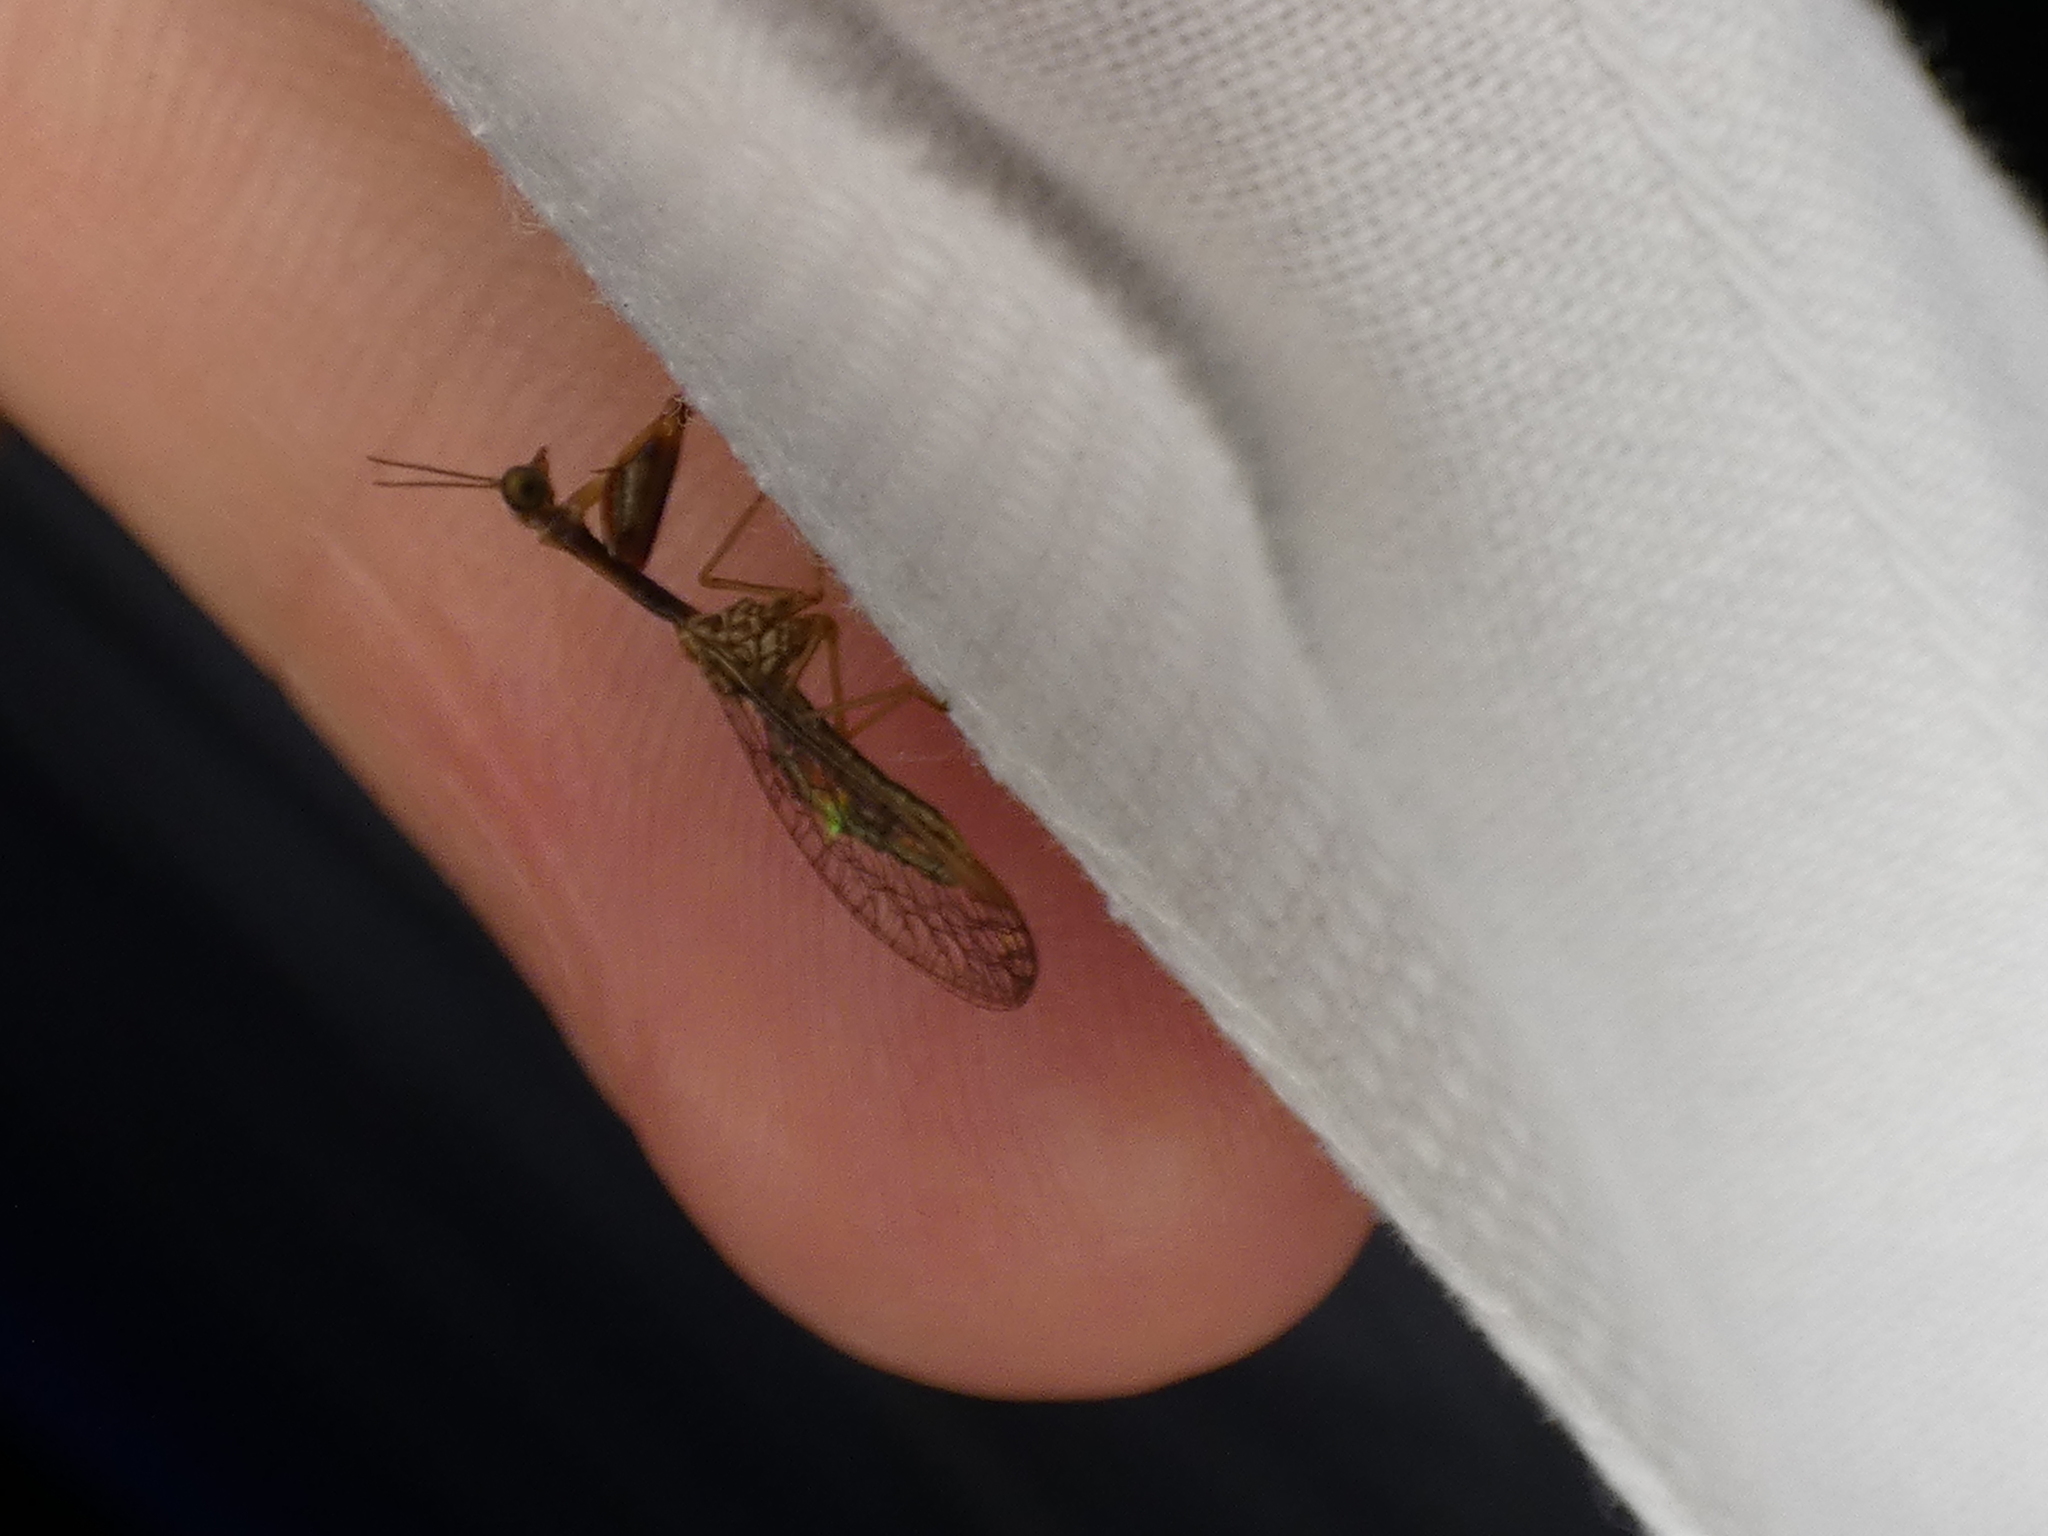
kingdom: Animalia
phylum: Arthropoda
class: Insecta
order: Neuroptera
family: Mantispidae
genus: Leptomantispa
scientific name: Leptomantispa pulchella
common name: Stevens's mantidfly
